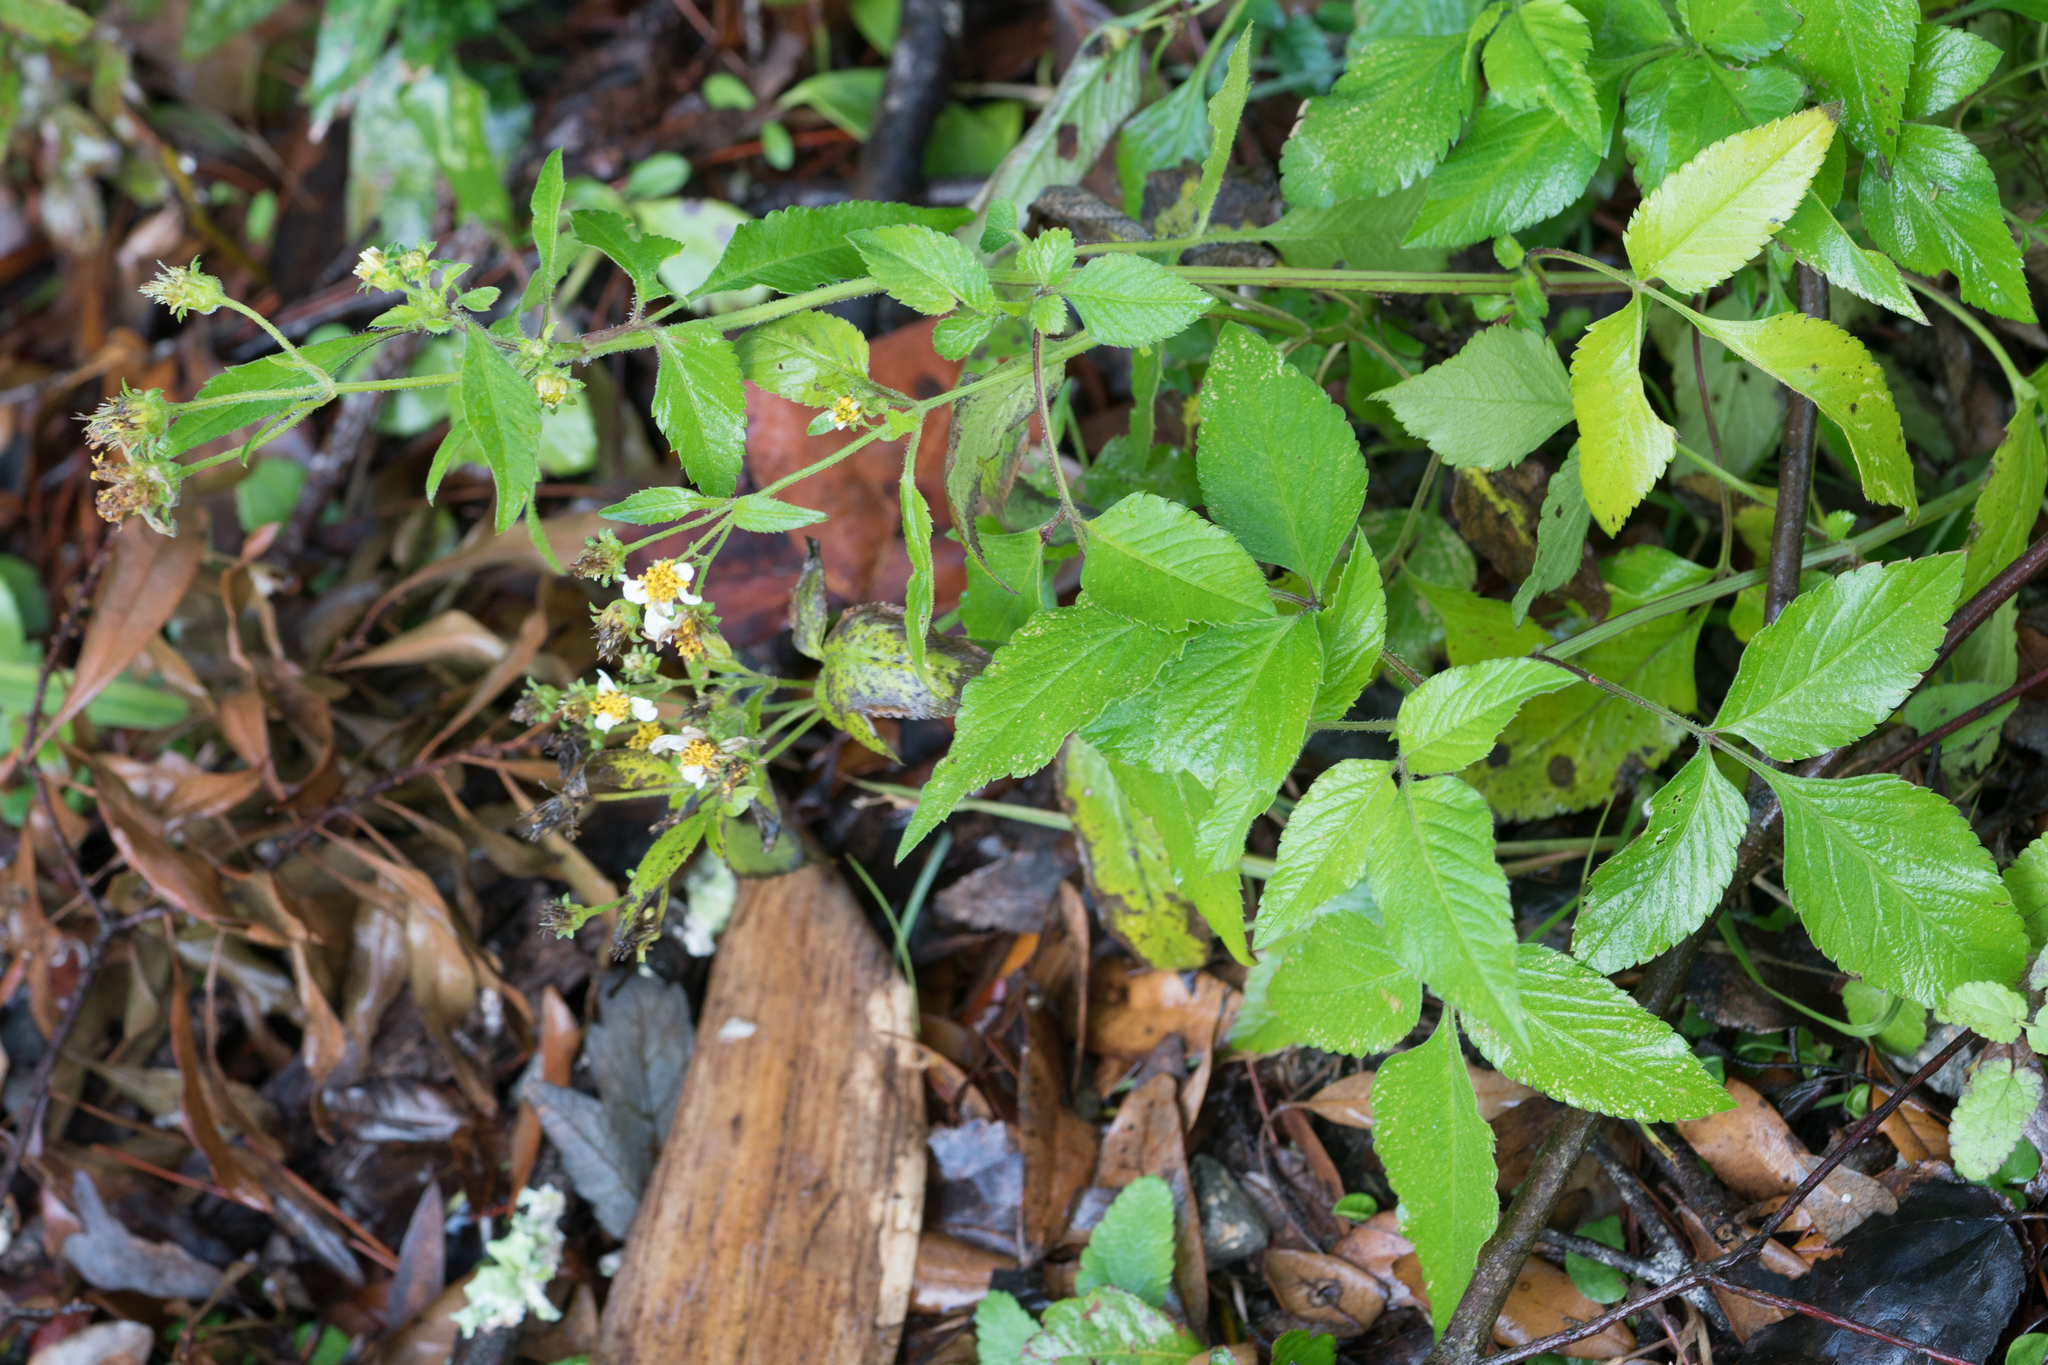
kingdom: Plantae
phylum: Tracheophyta
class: Magnoliopsida
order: Asterales
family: Asteraceae
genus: Bidens
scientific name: Bidens alba
